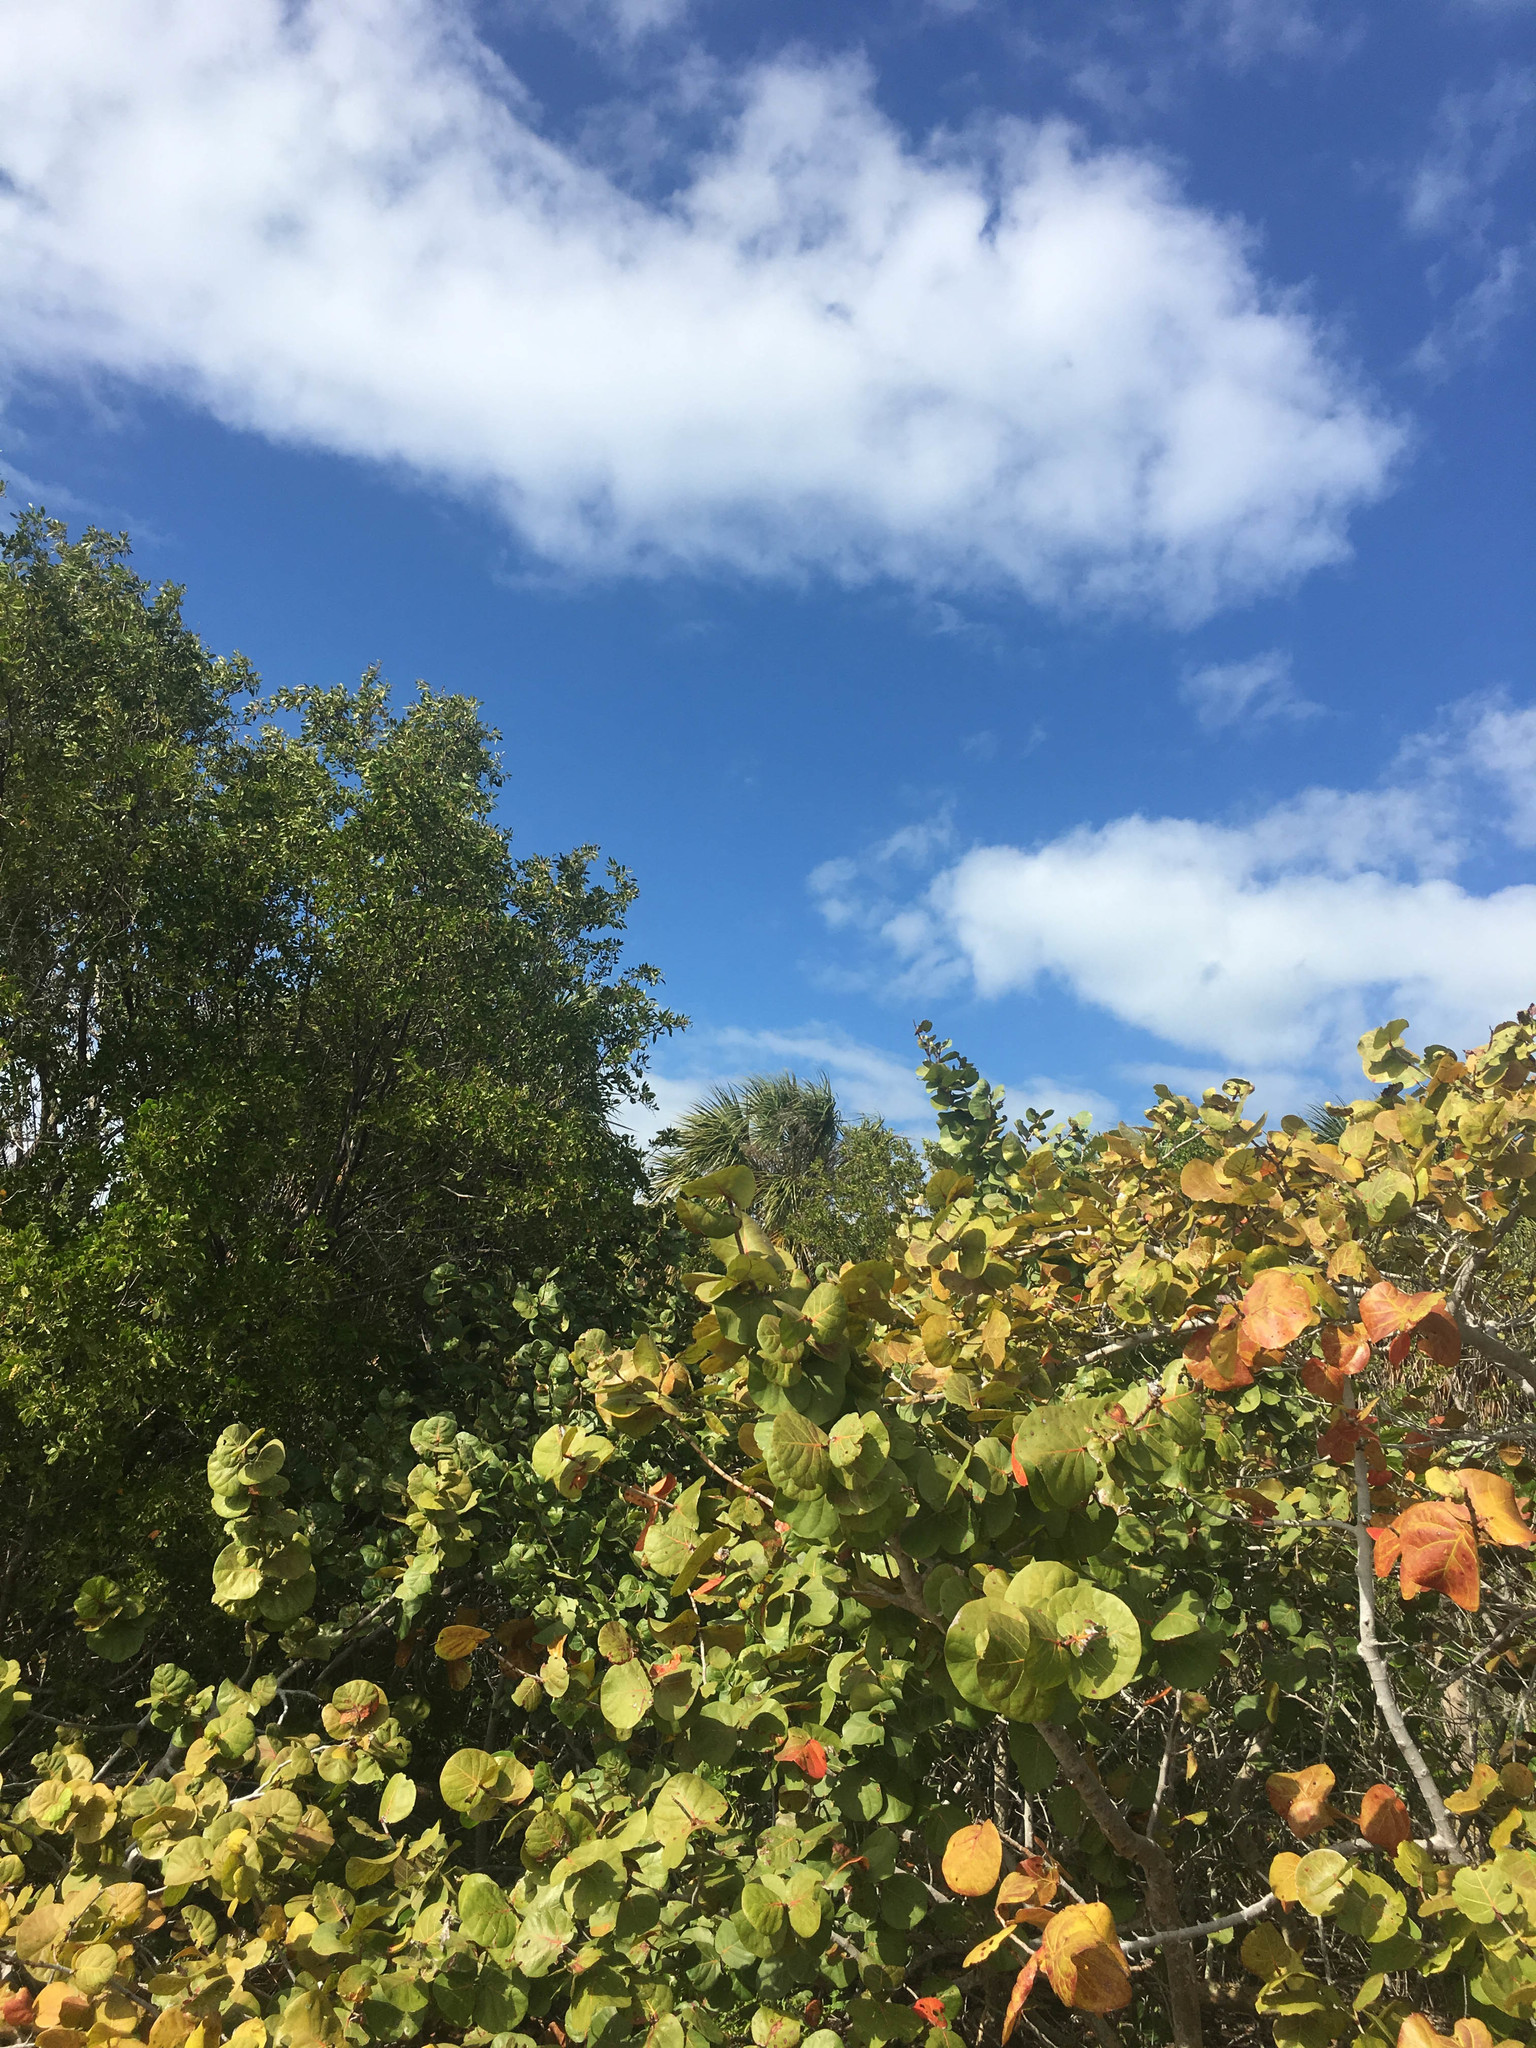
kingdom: Plantae
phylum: Tracheophyta
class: Magnoliopsida
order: Caryophyllales
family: Polygonaceae
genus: Coccoloba
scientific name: Coccoloba uvifera
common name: Seagrape
